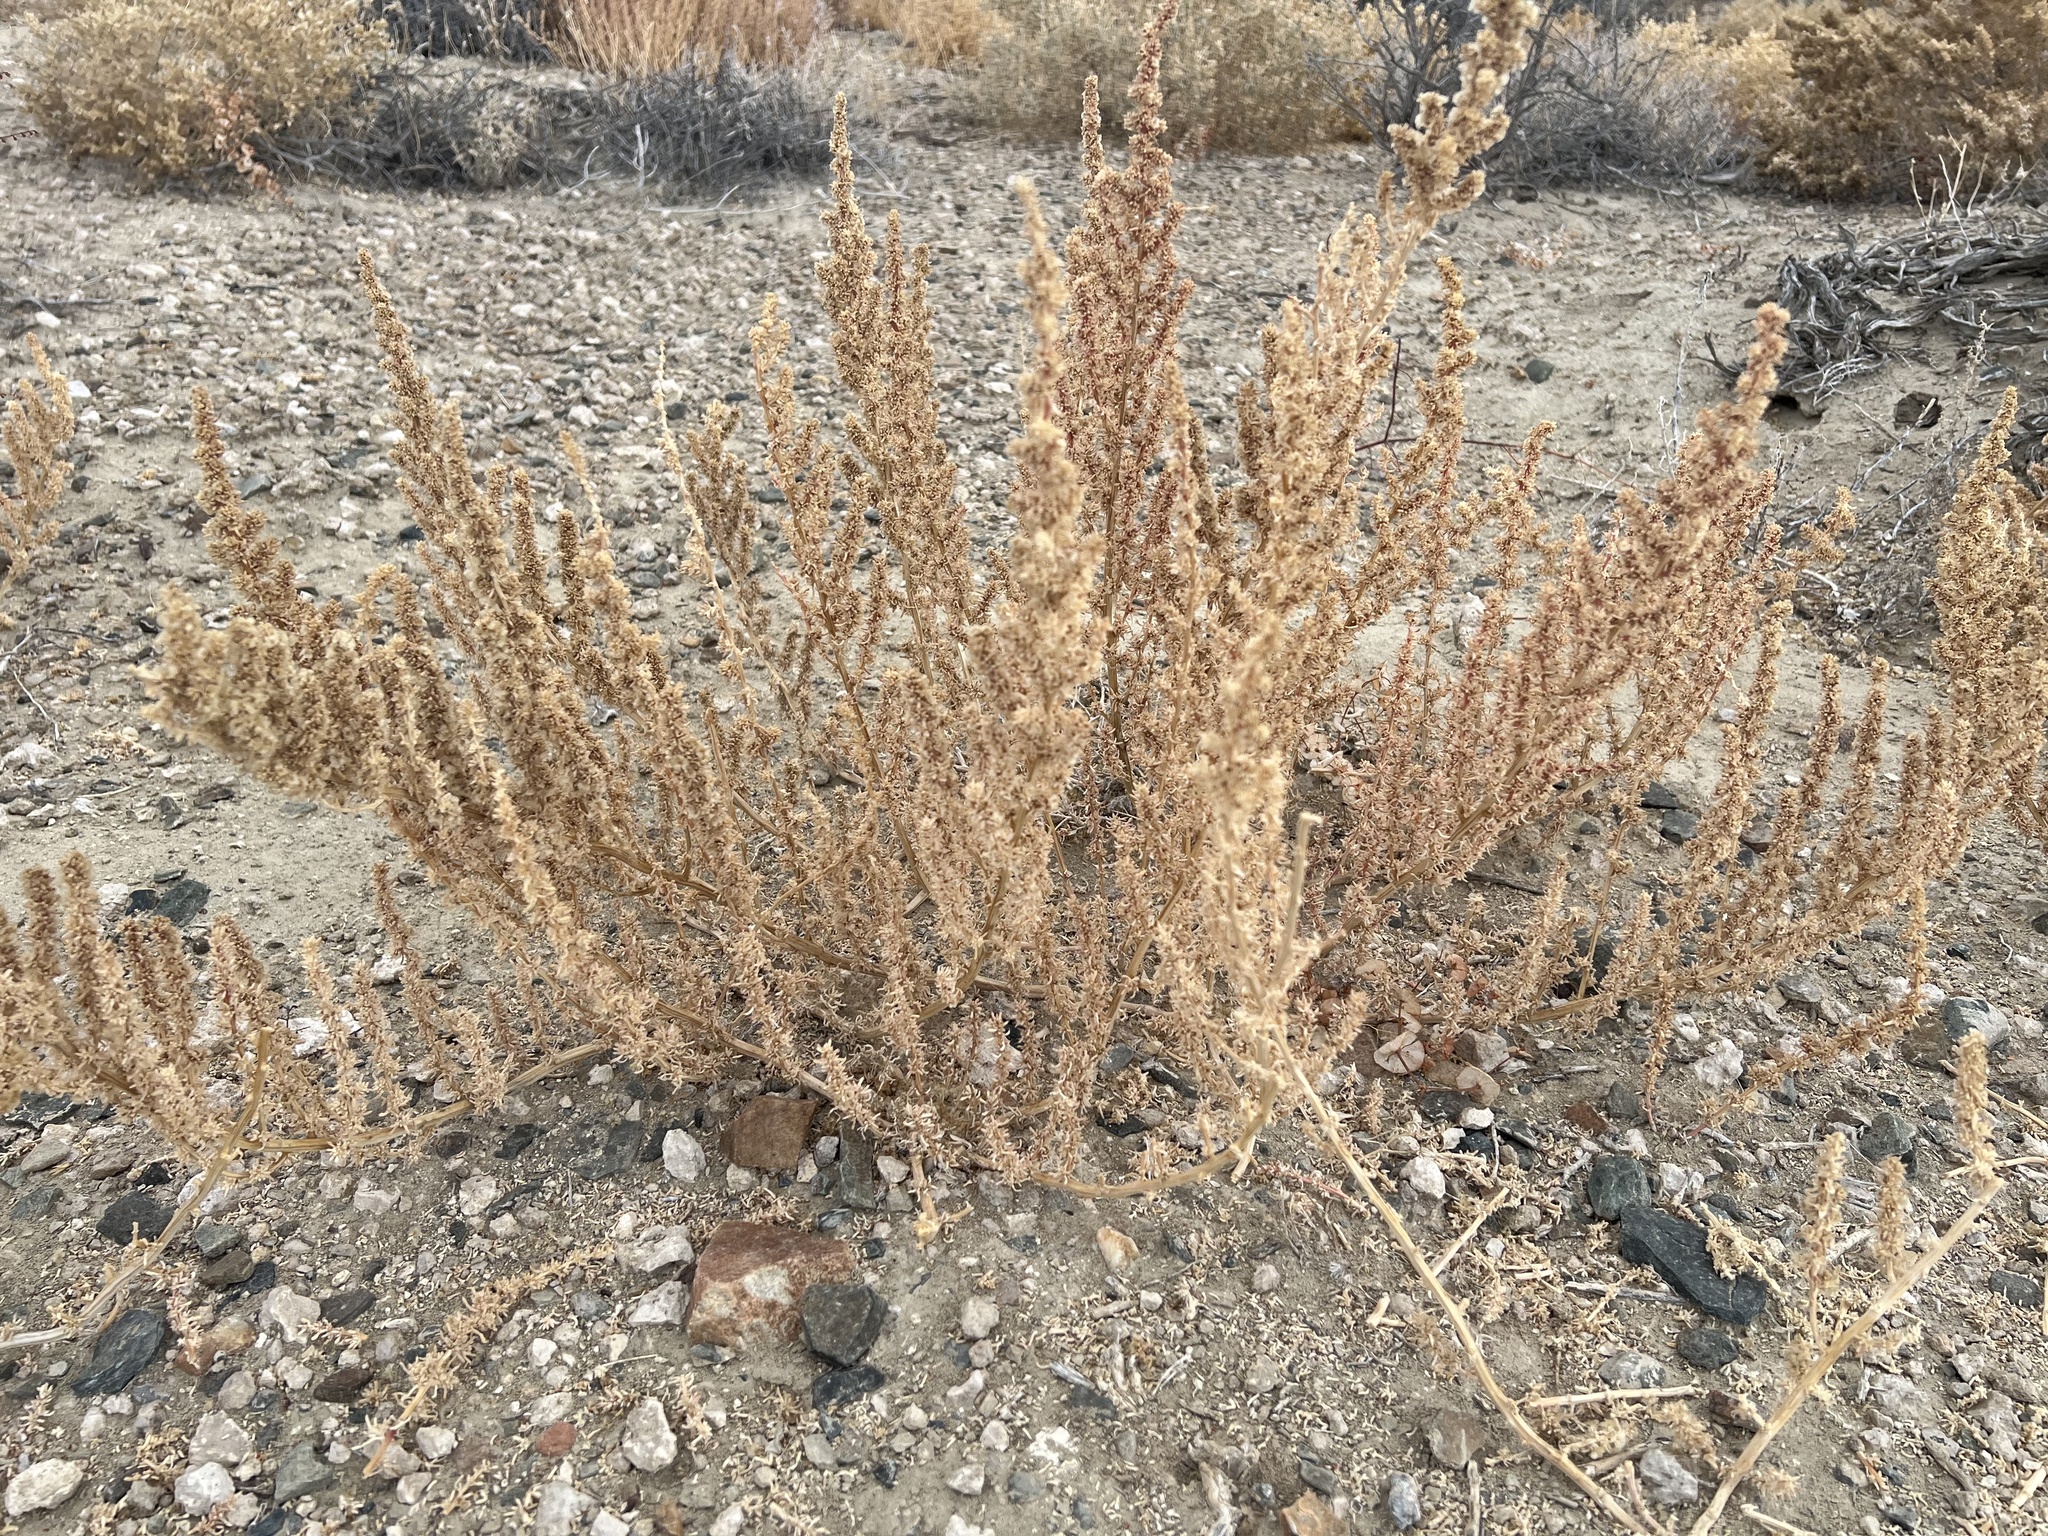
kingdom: Plantae
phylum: Tracheophyta
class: Magnoliopsida
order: Caryophyllales
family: Amaranthaceae
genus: Halogeton
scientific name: Halogeton glomeratus
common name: Saltlover
